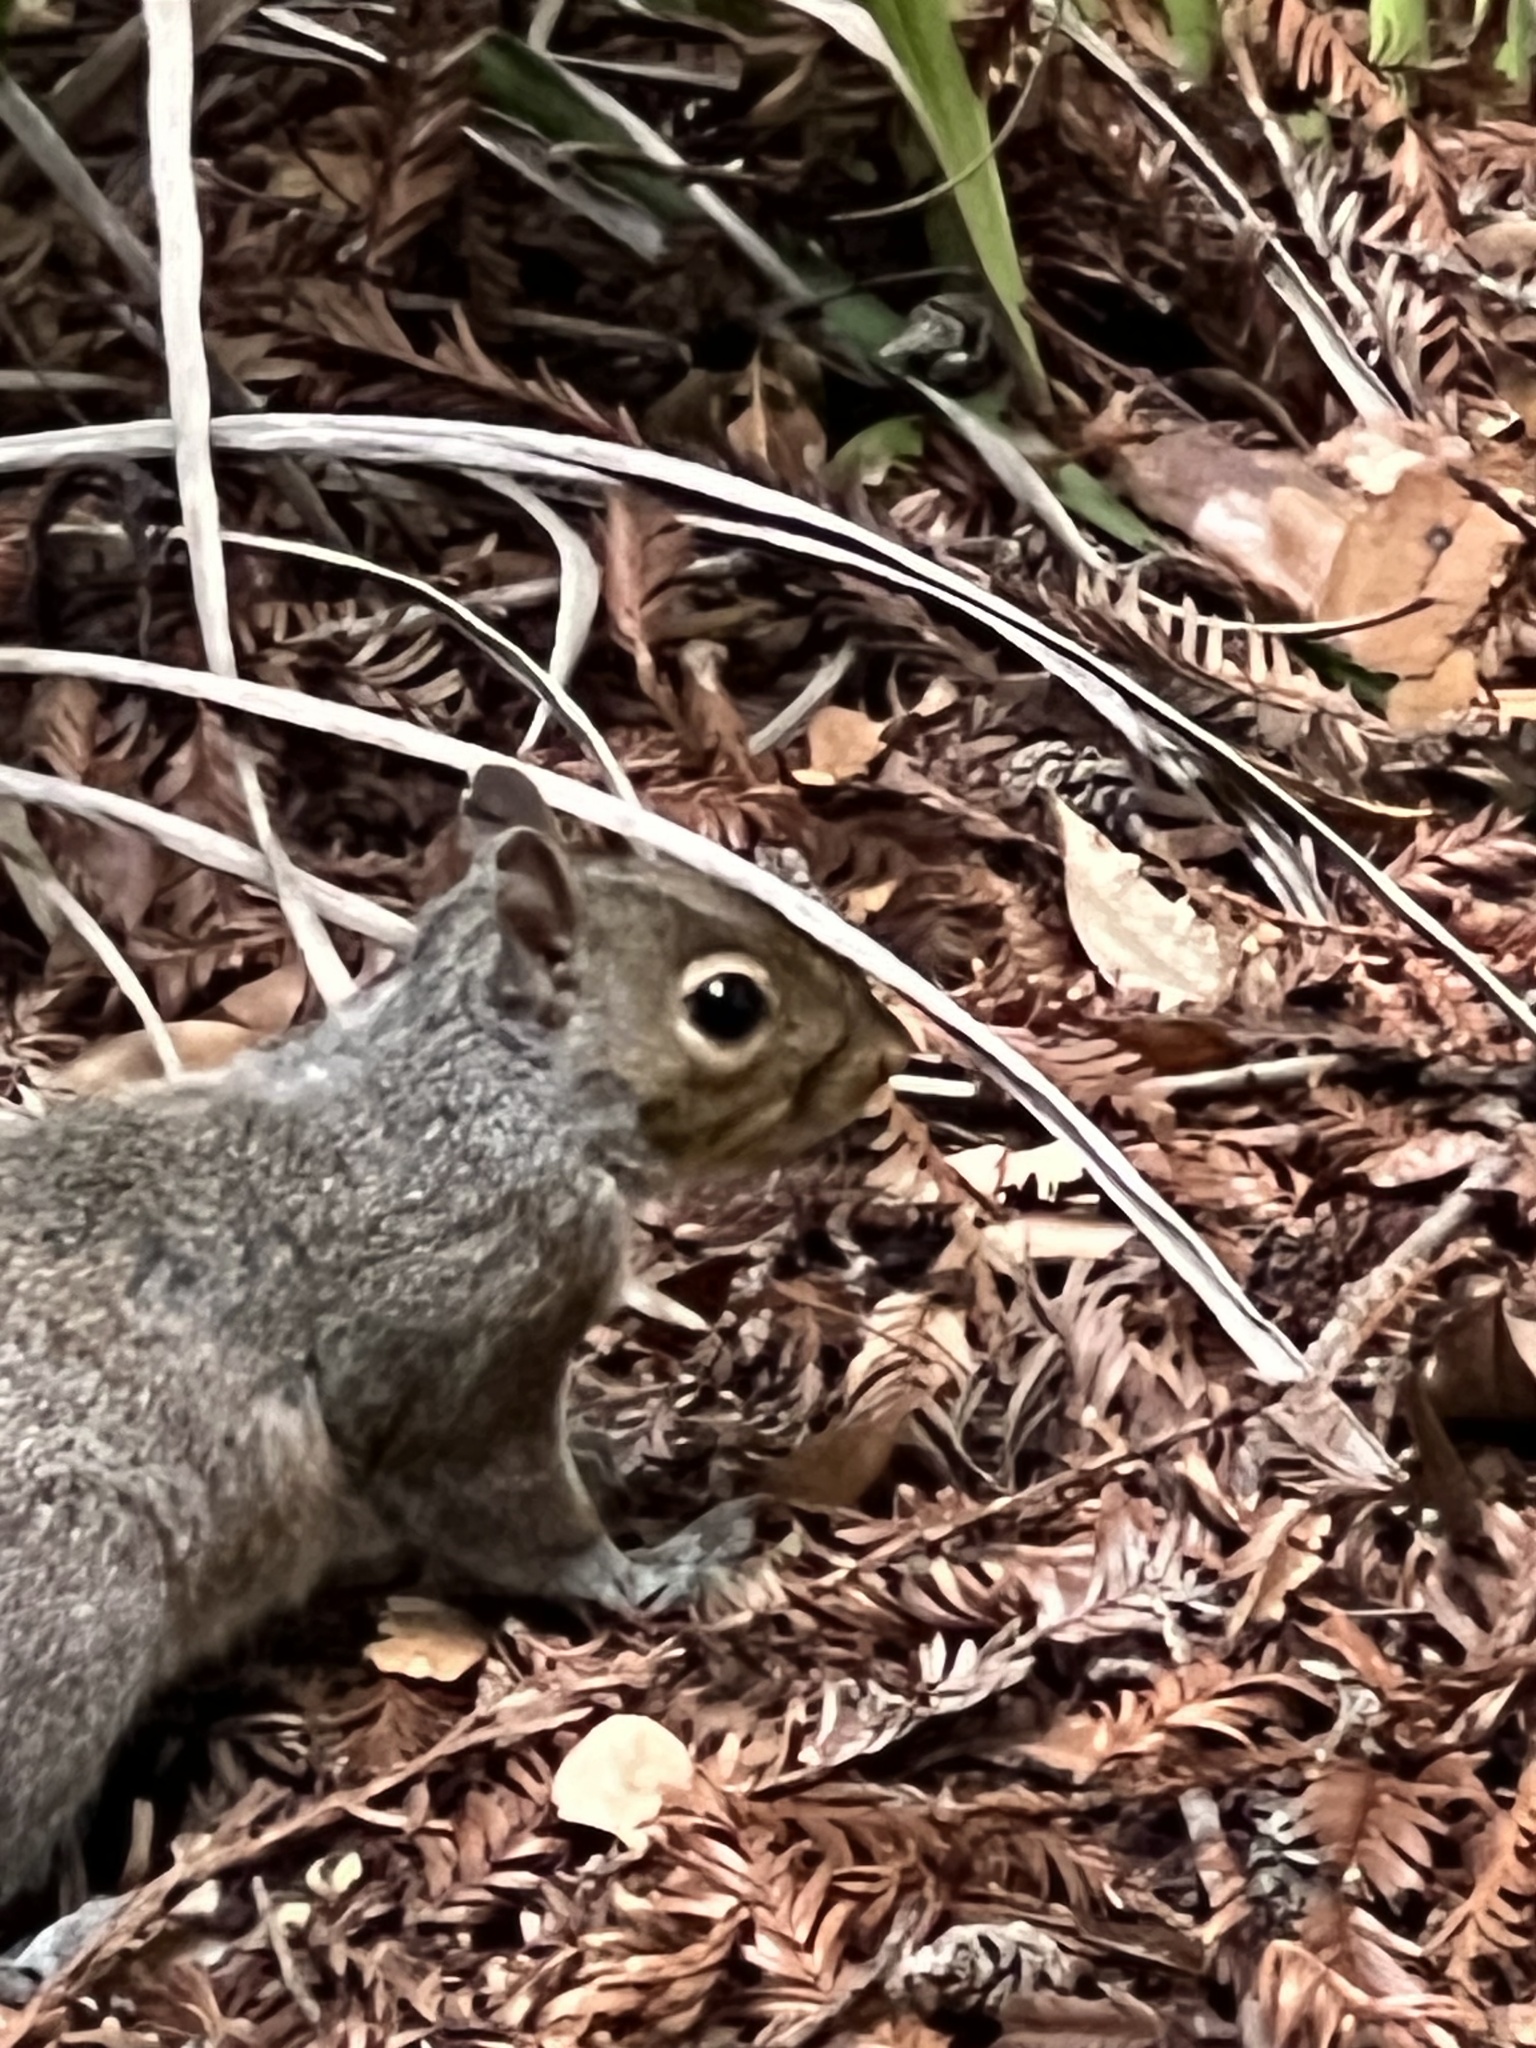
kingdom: Animalia
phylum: Chordata
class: Mammalia
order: Rodentia
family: Sciuridae
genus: Sciurus
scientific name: Sciurus carolinensis
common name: Eastern gray squirrel
